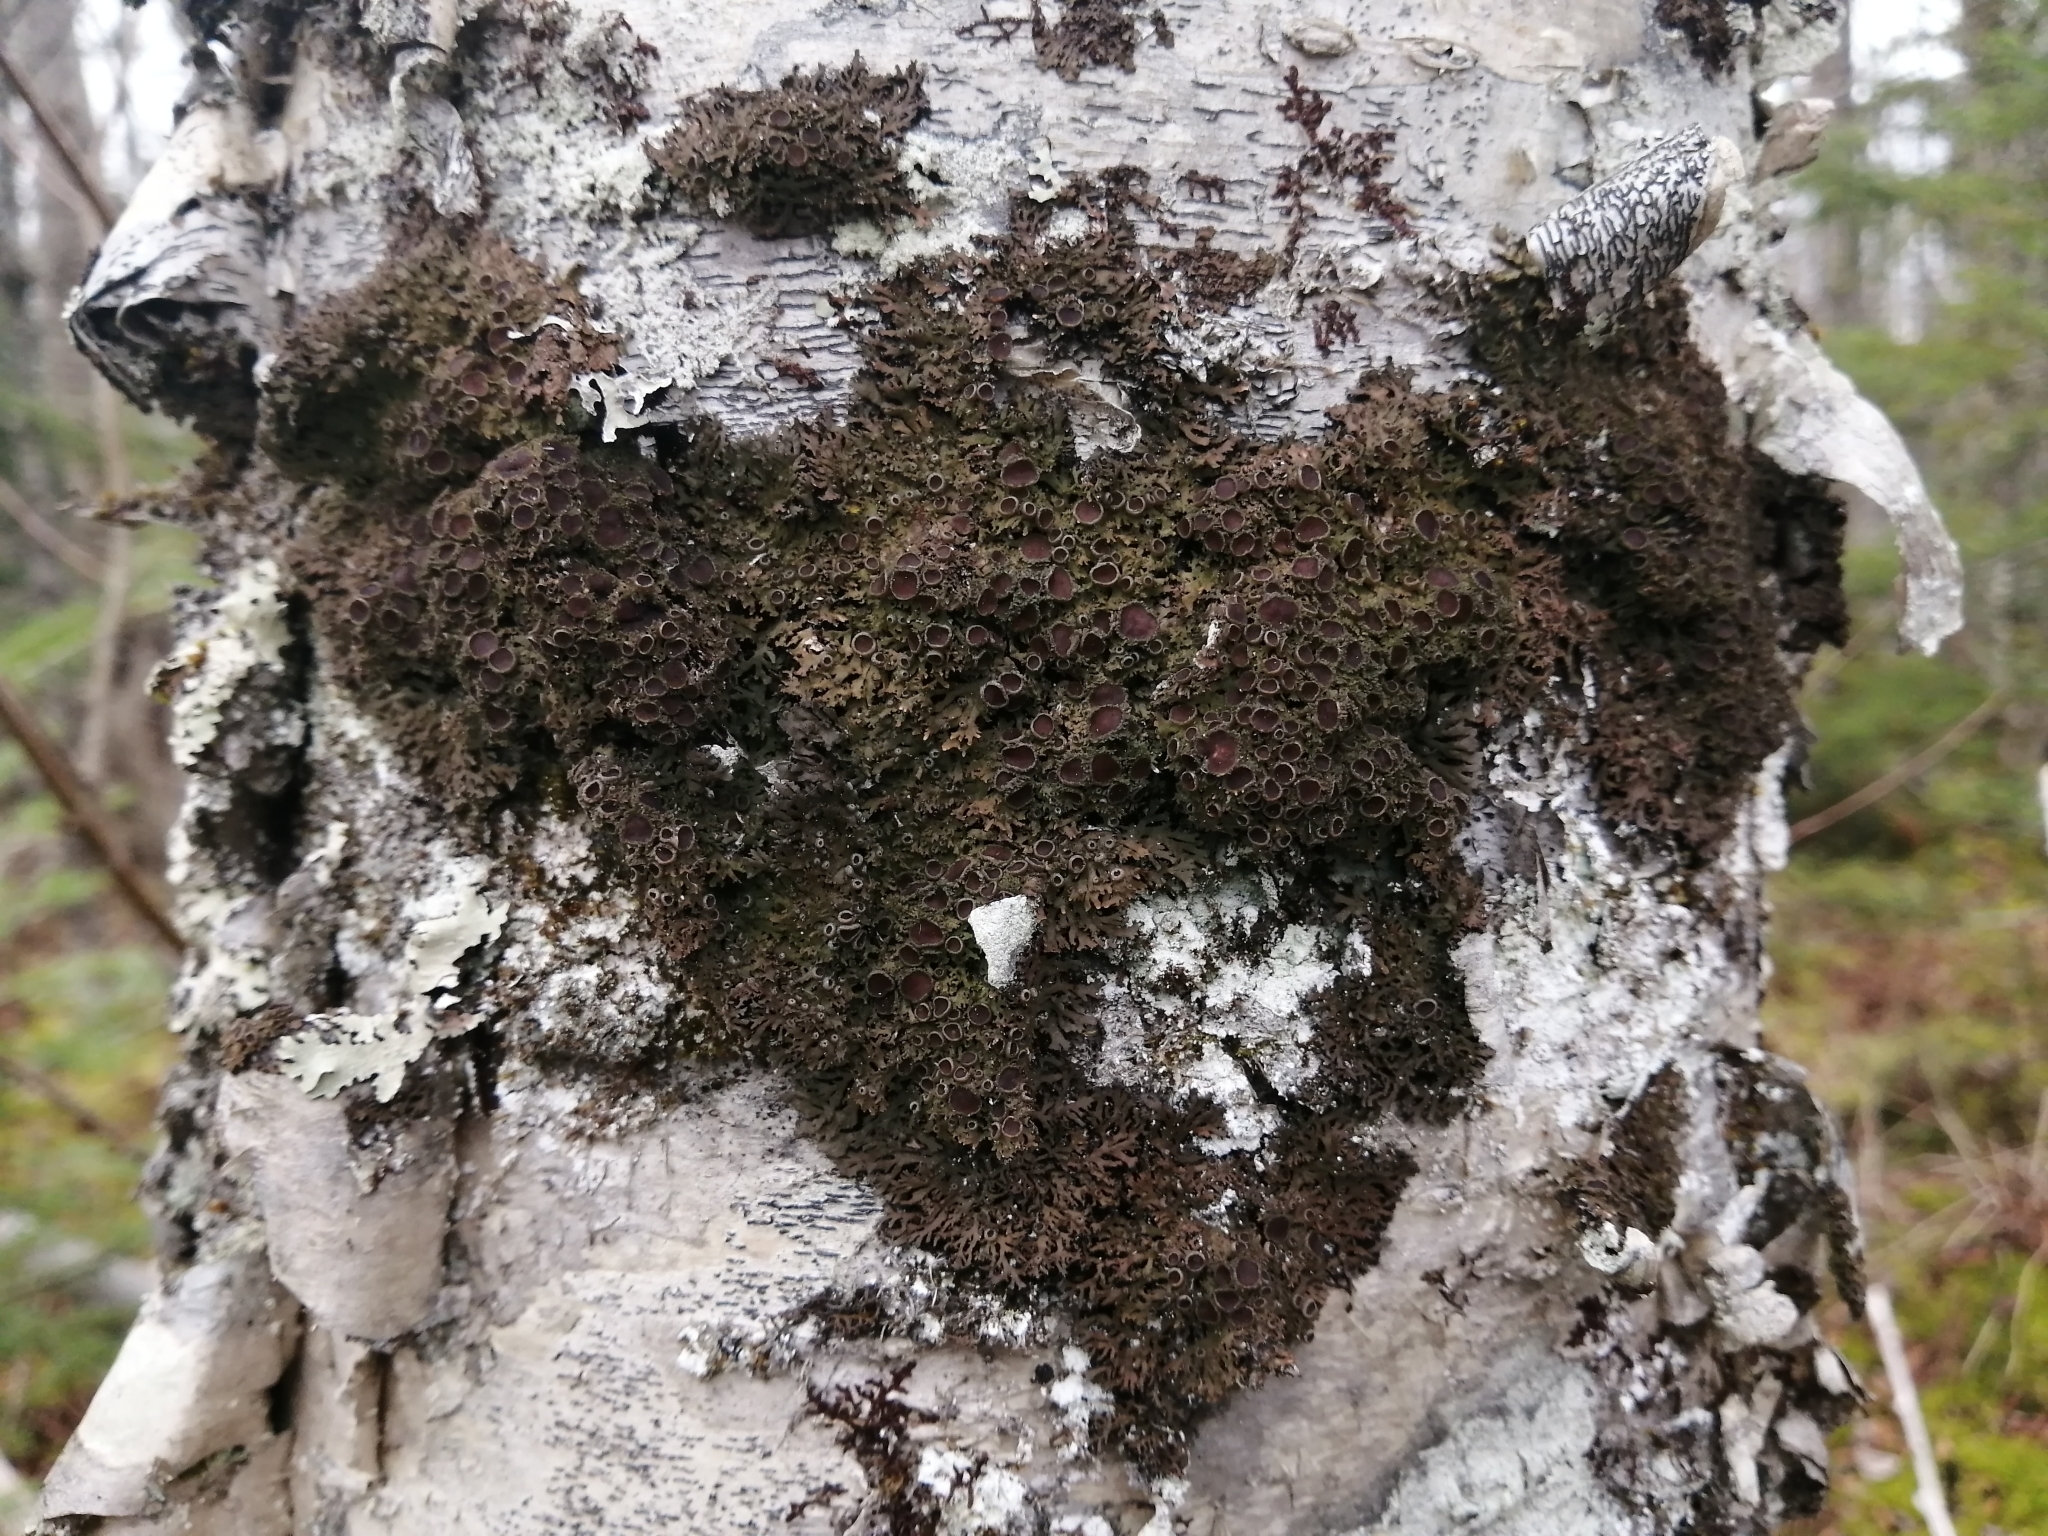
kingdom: Fungi
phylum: Ascomycota
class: Lecanoromycetes
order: Caliciales
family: Physciaceae
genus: Kurokawia
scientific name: Kurokawia palmulata
